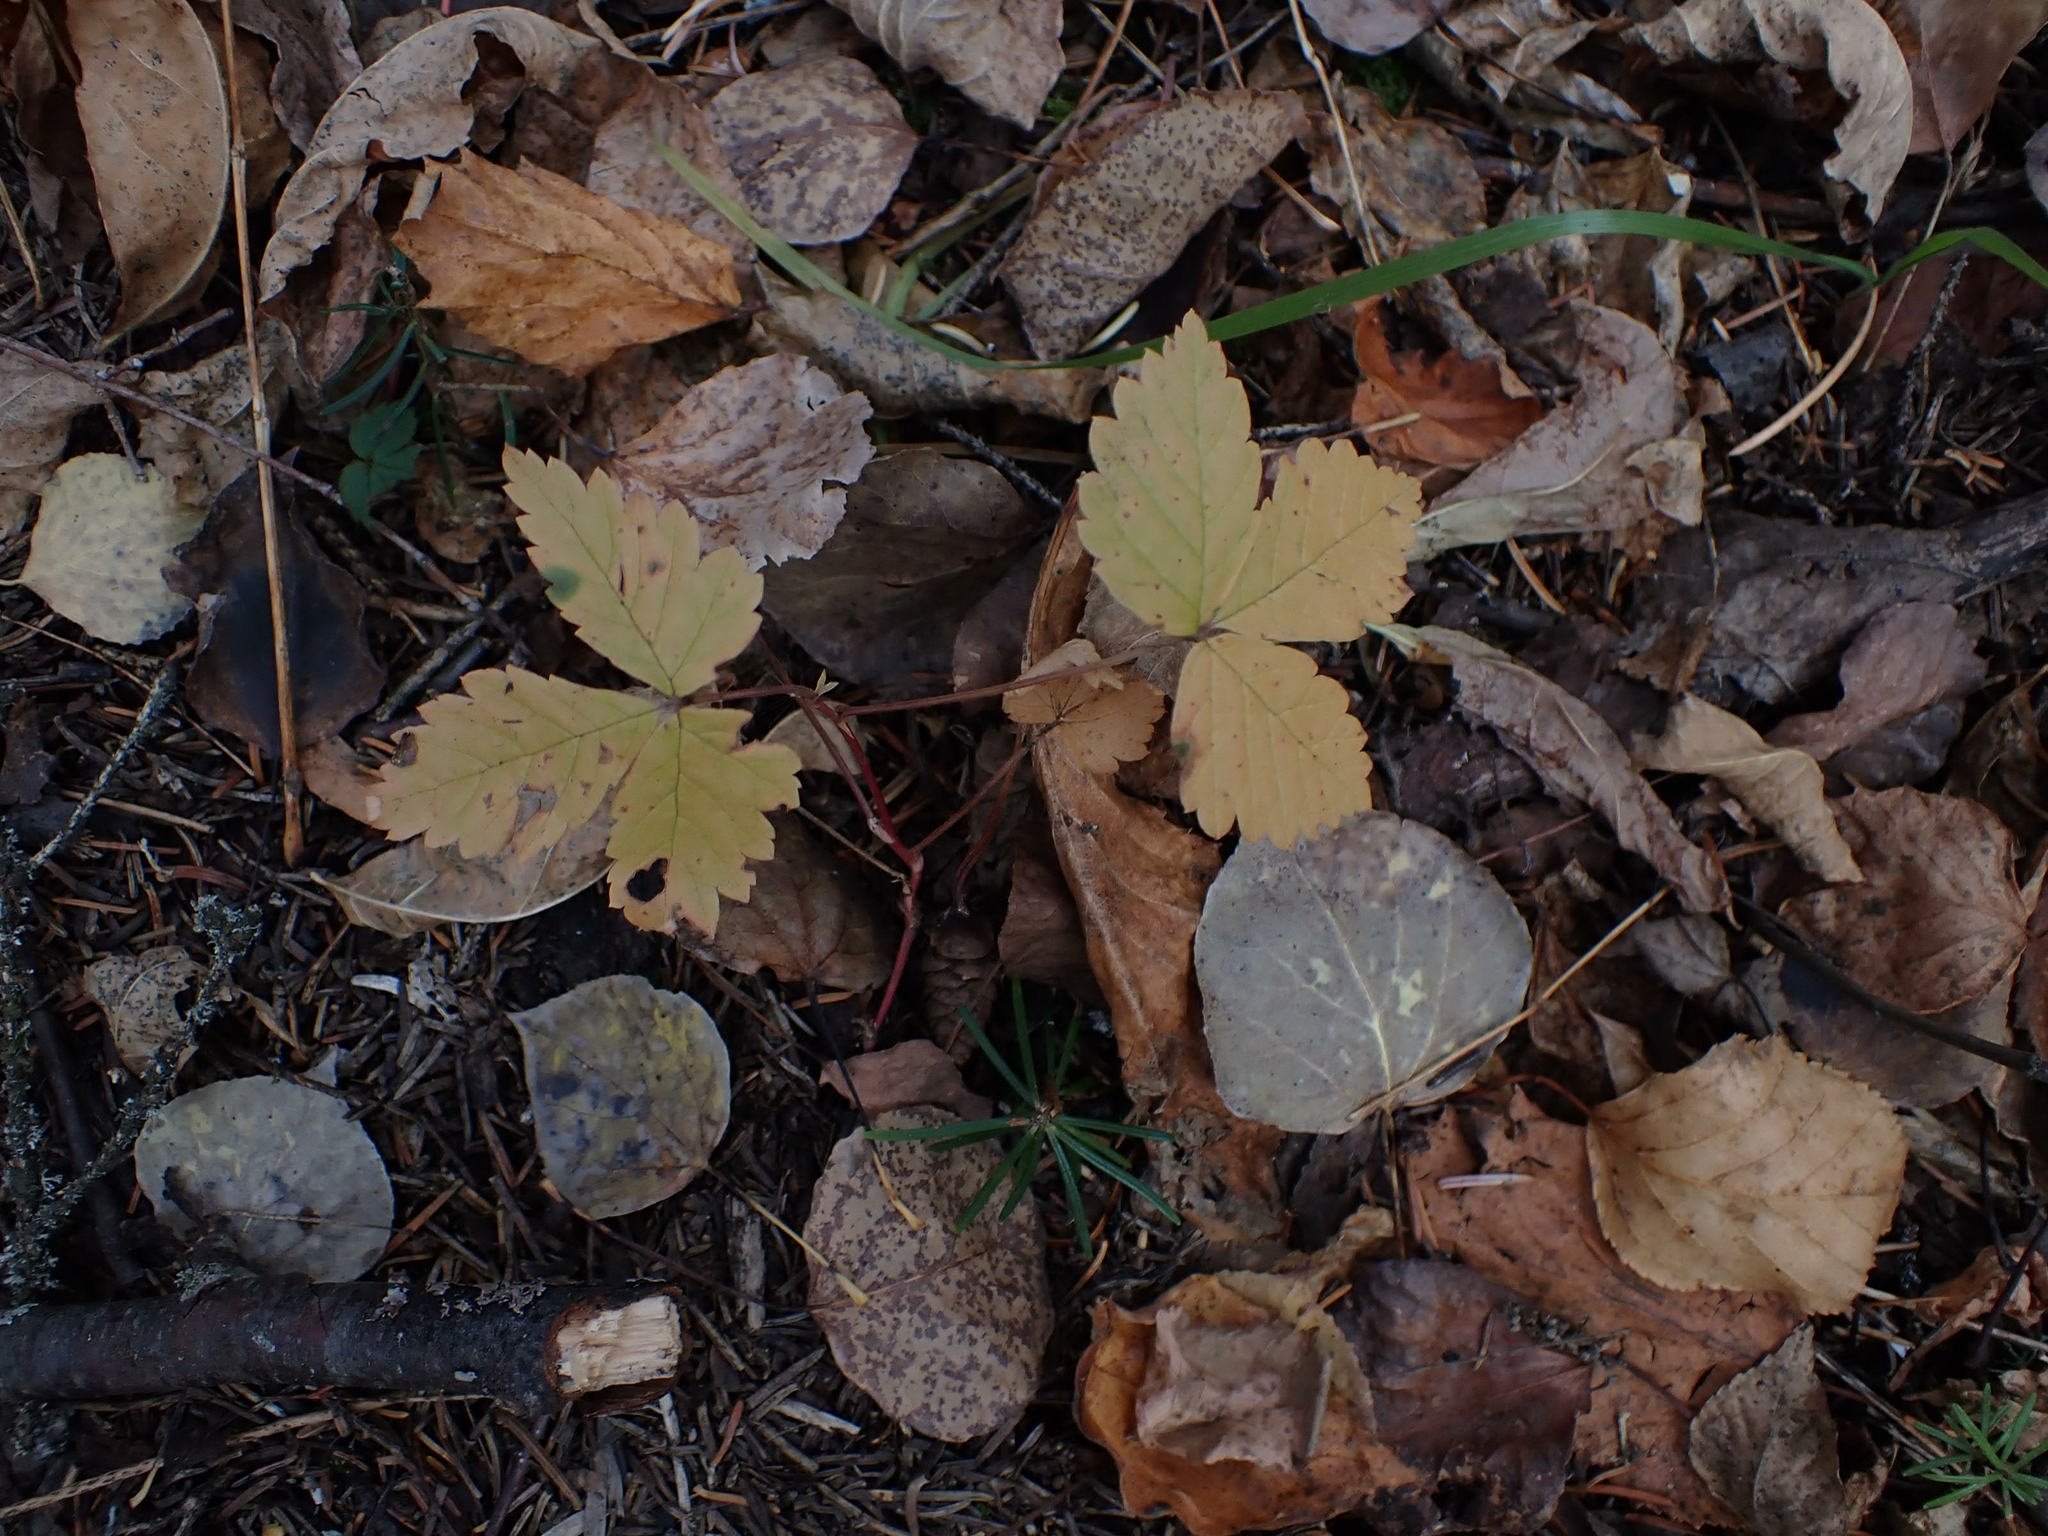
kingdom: Plantae
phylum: Tracheophyta
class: Magnoliopsida
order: Rosales
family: Rosaceae
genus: Rubus
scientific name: Rubus pubescens
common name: Dwarf raspberry
